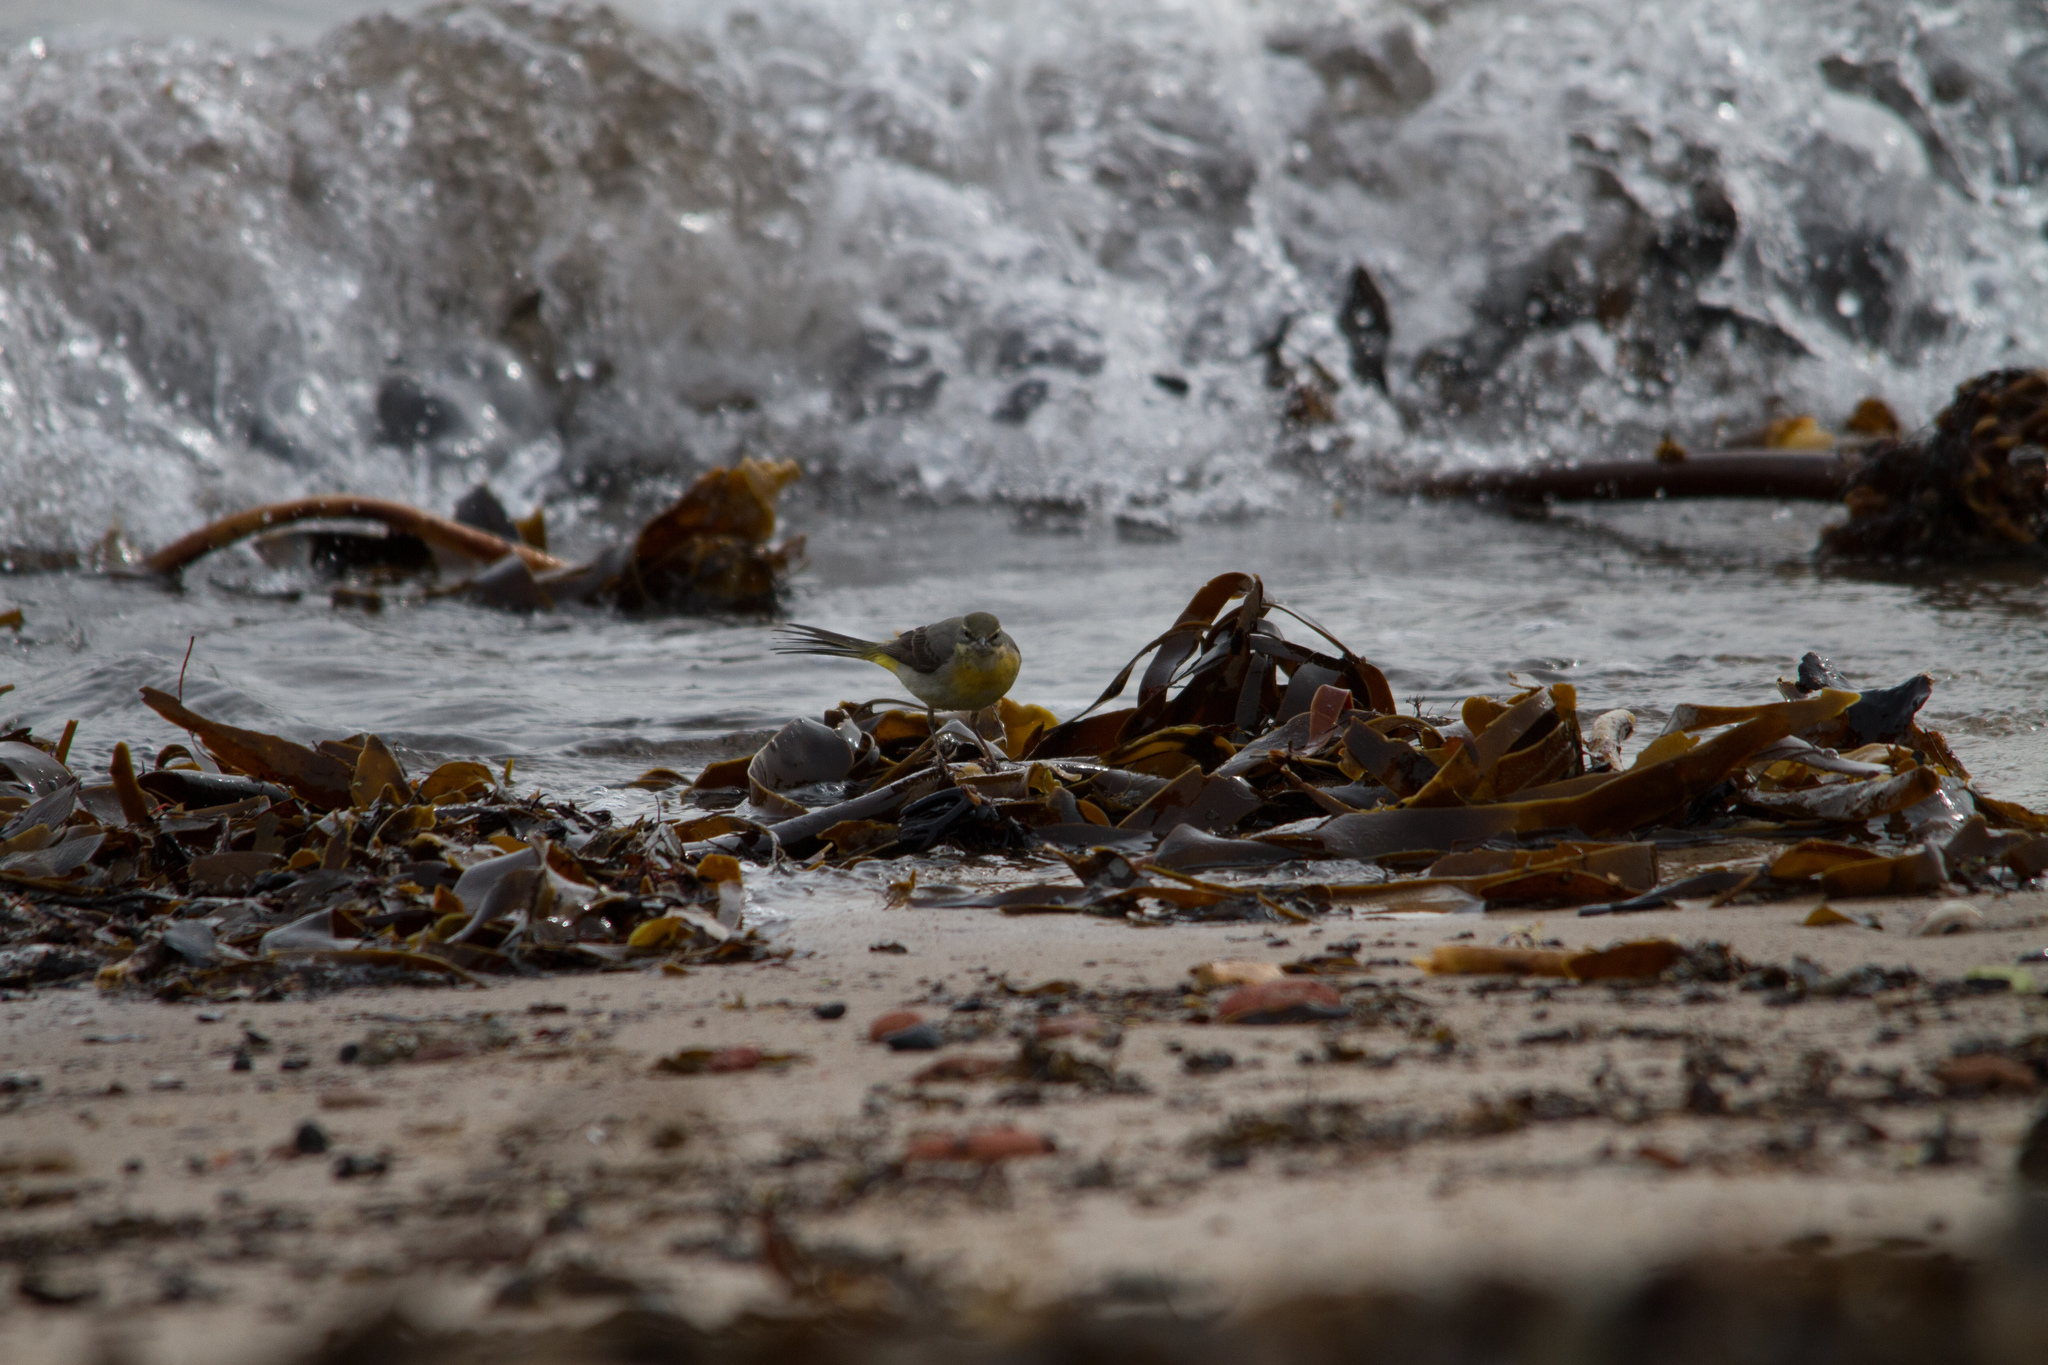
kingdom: Animalia
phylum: Chordata
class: Aves
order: Passeriformes
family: Motacillidae
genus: Motacilla
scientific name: Motacilla cinerea
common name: Grey wagtail
